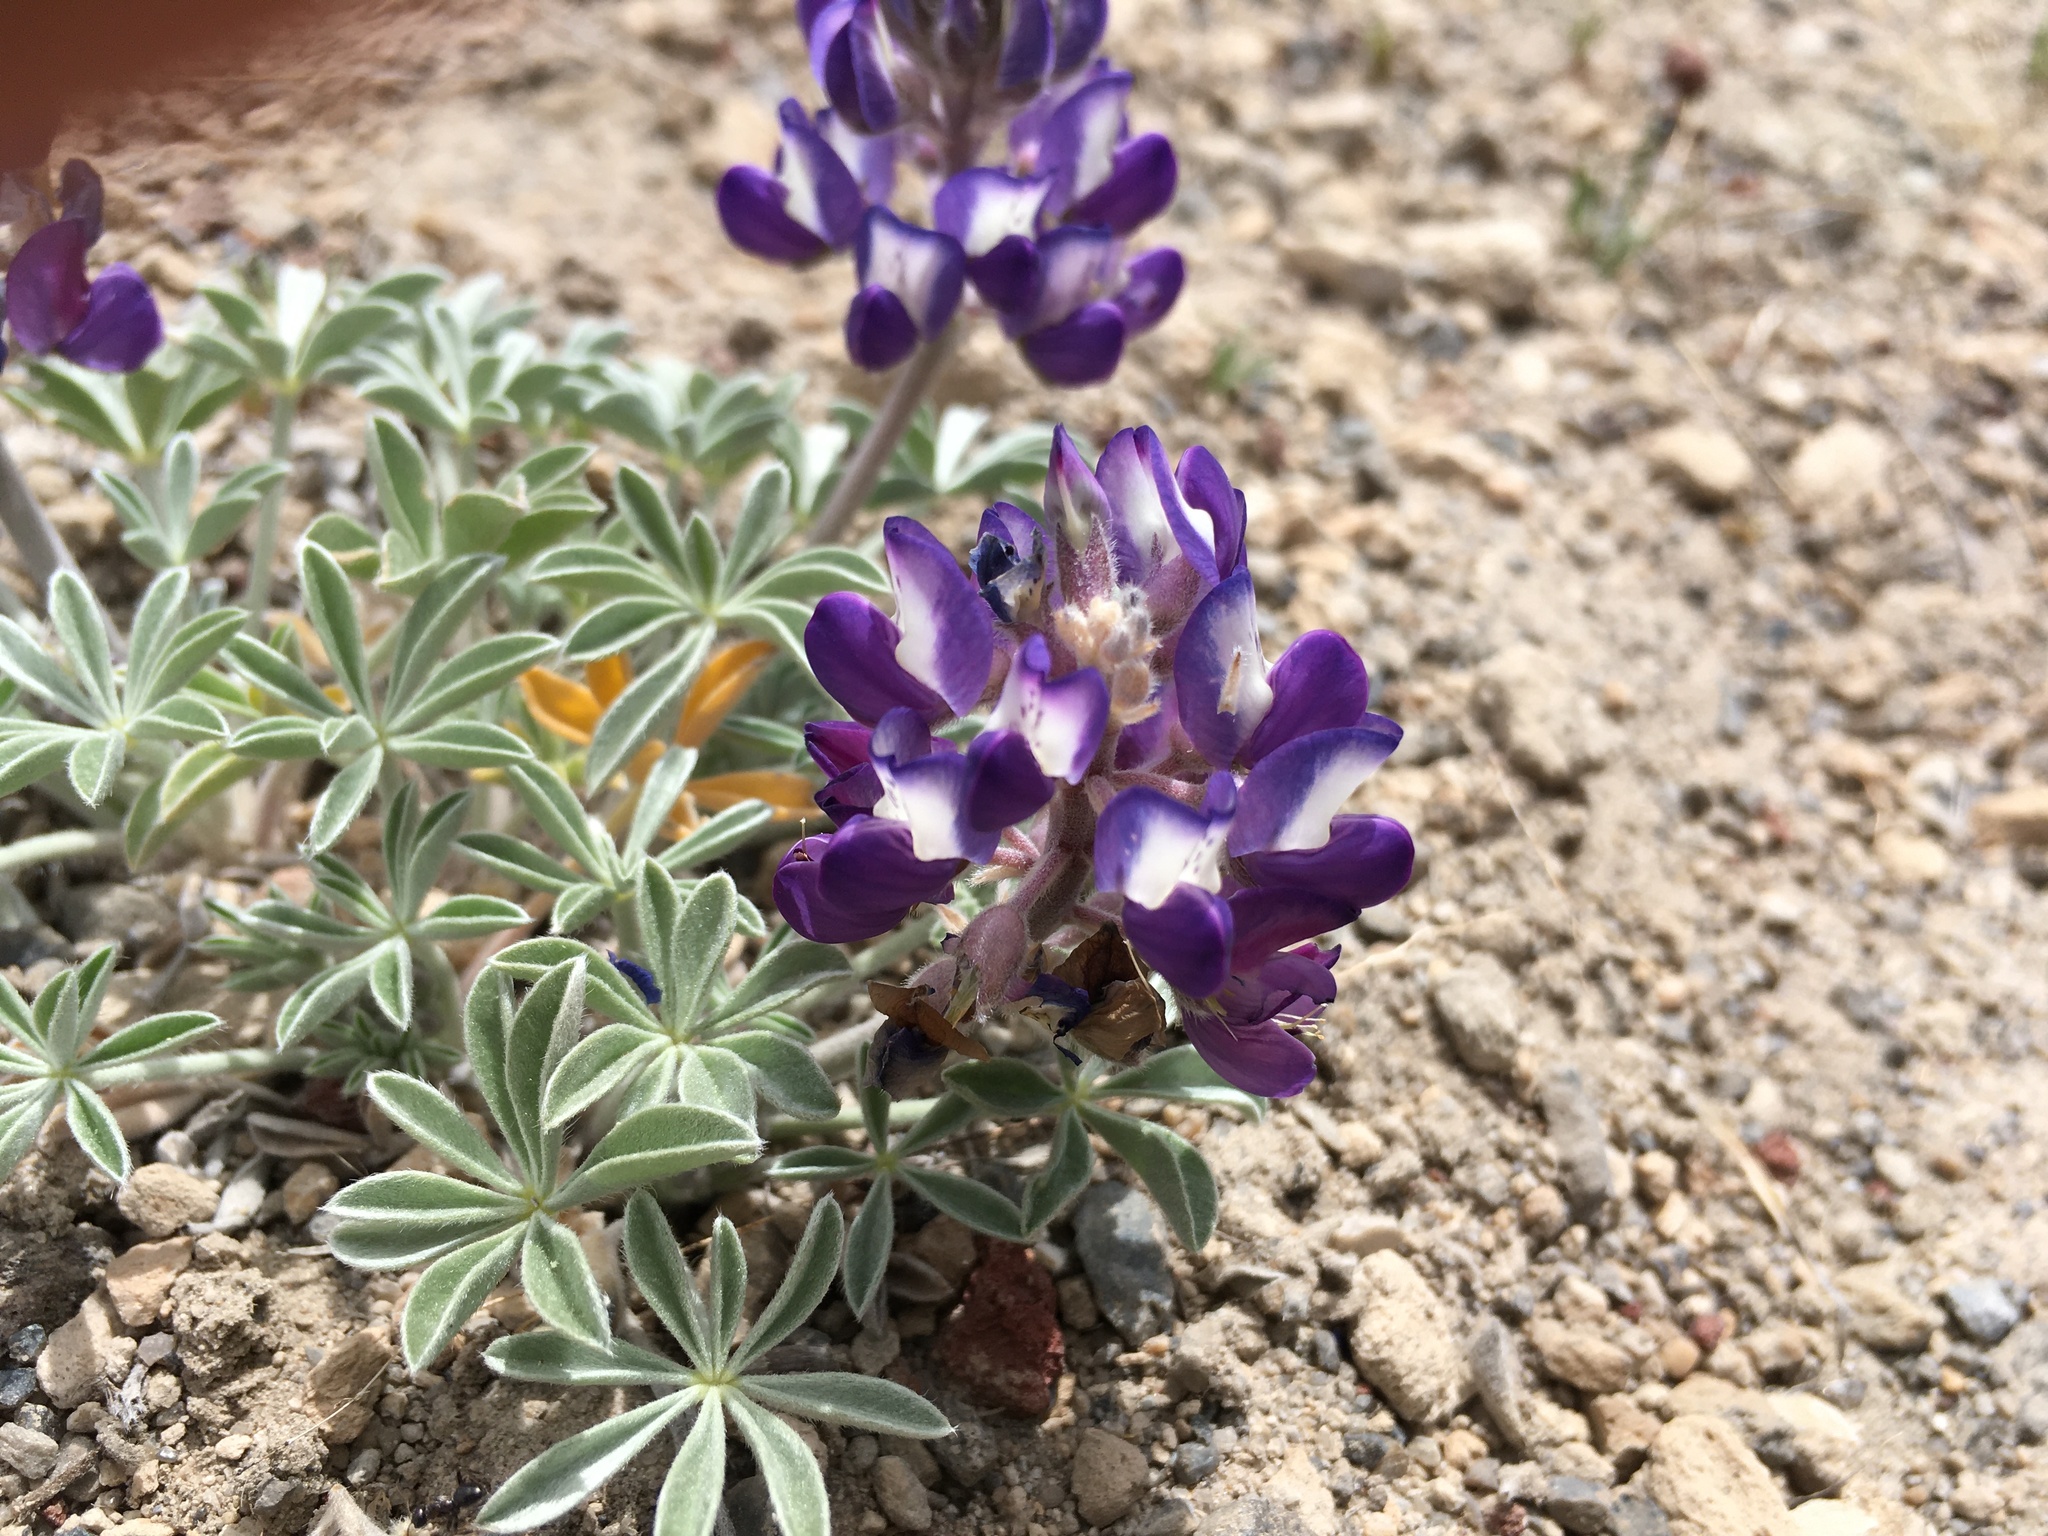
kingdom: Plantae
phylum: Tracheophyta
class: Magnoliopsida
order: Fabales
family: Fabaceae
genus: Lupinus
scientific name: Lupinus duranii
